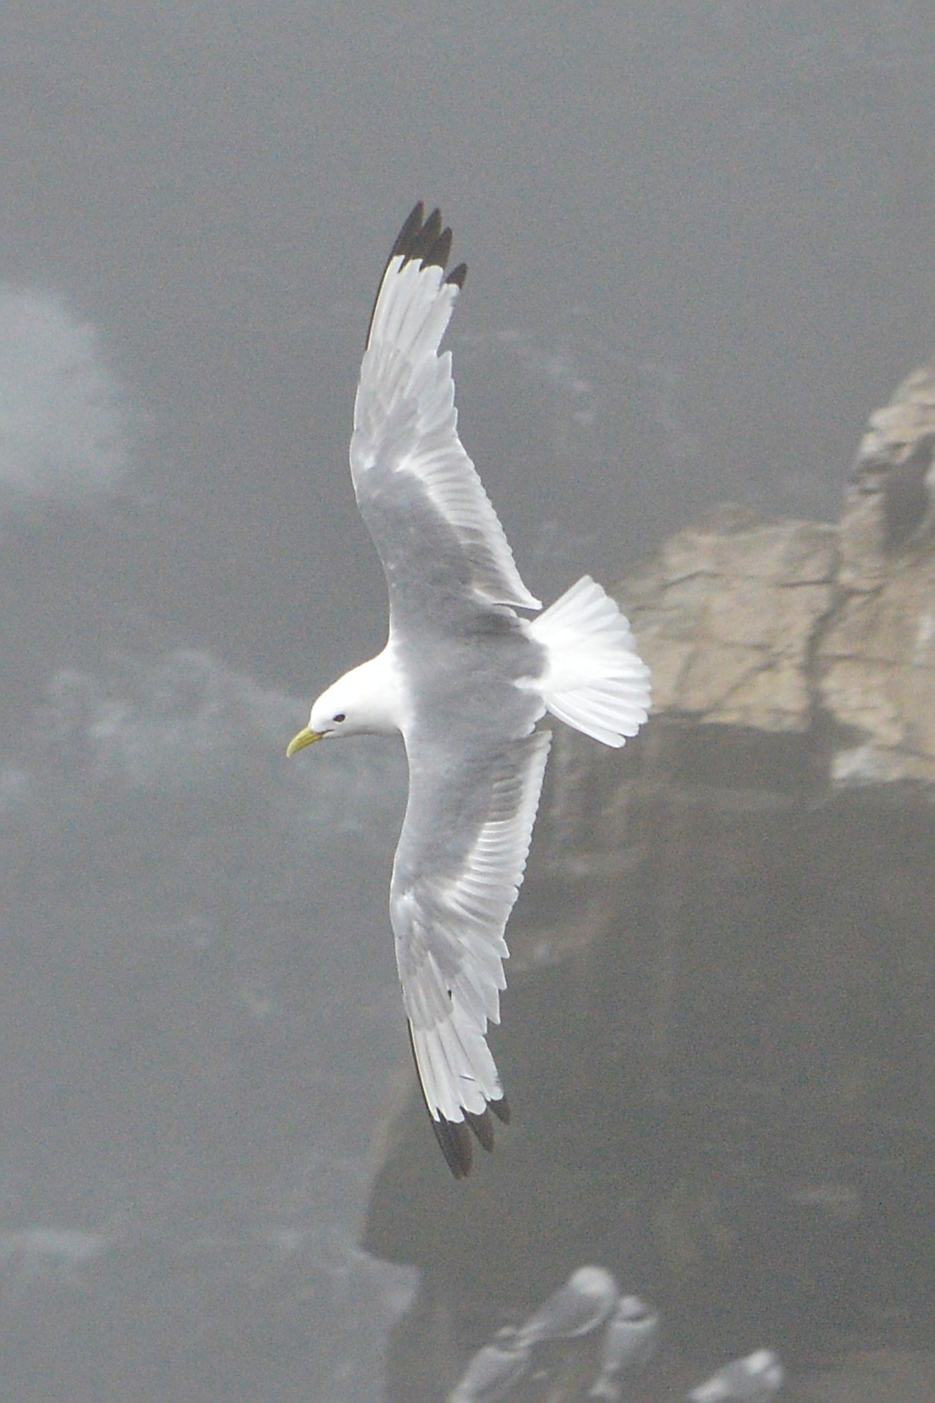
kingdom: Animalia
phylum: Chordata
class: Aves
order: Charadriiformes
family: Laridae
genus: Rissa
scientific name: Rissa tridactyla
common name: Black-legged kittiwake
